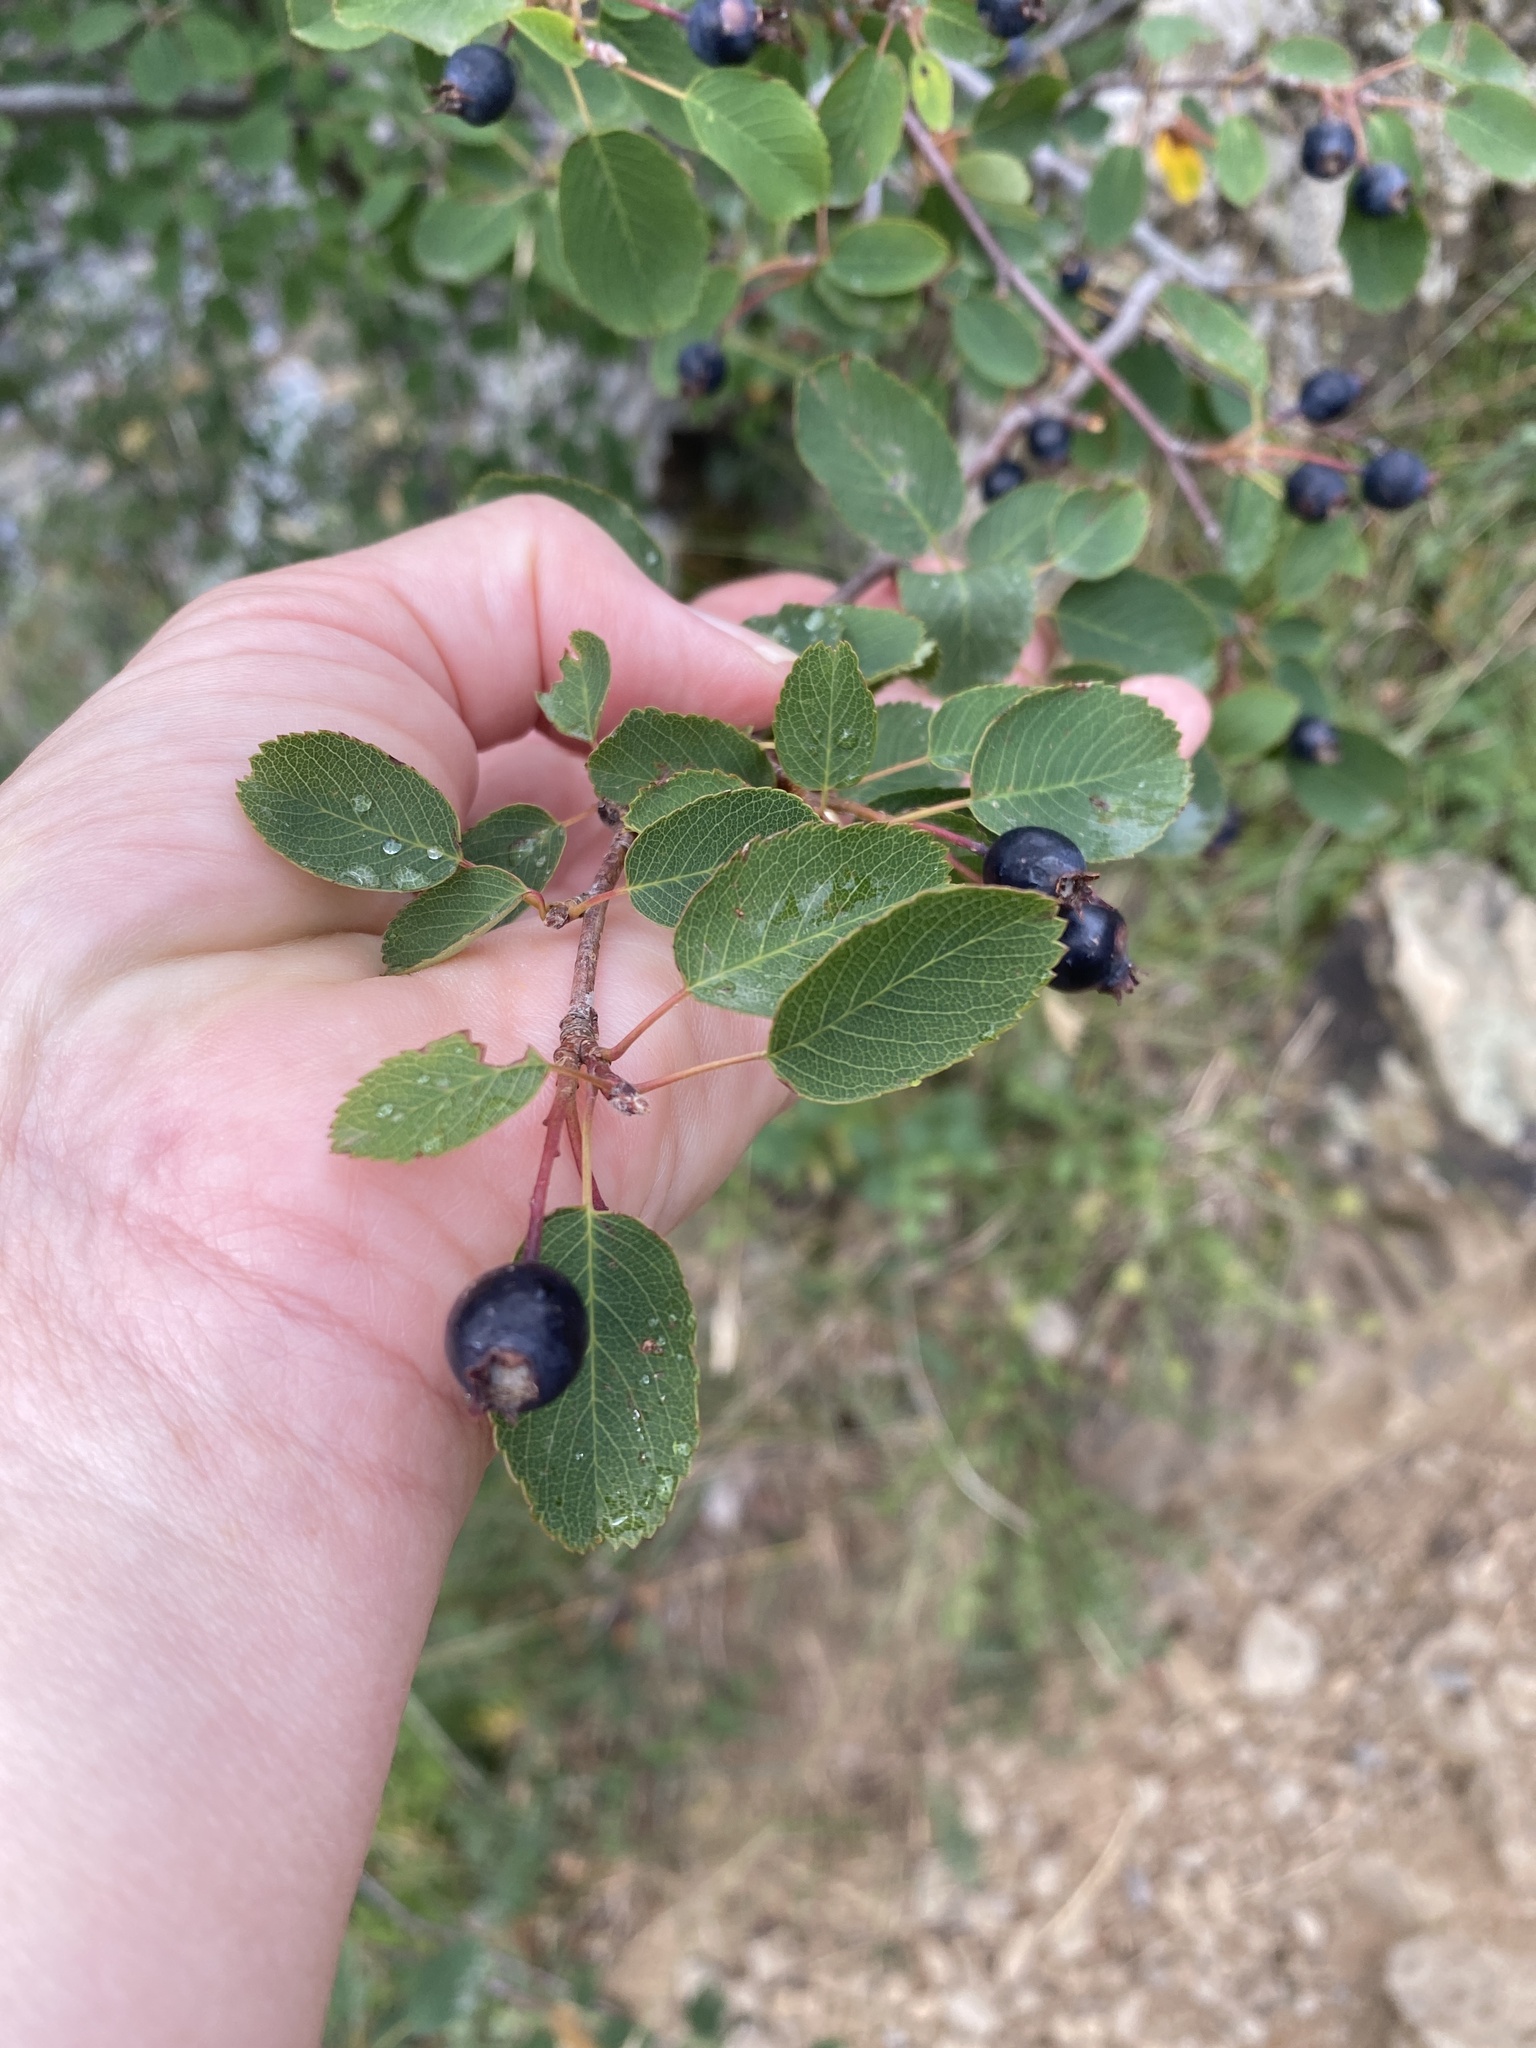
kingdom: Plantae
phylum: Tracheophyta
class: Magnoliopsida
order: Rosales
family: Rosaceae
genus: Amelanchier
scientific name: Amelanchier ovalis
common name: Serviceberry
